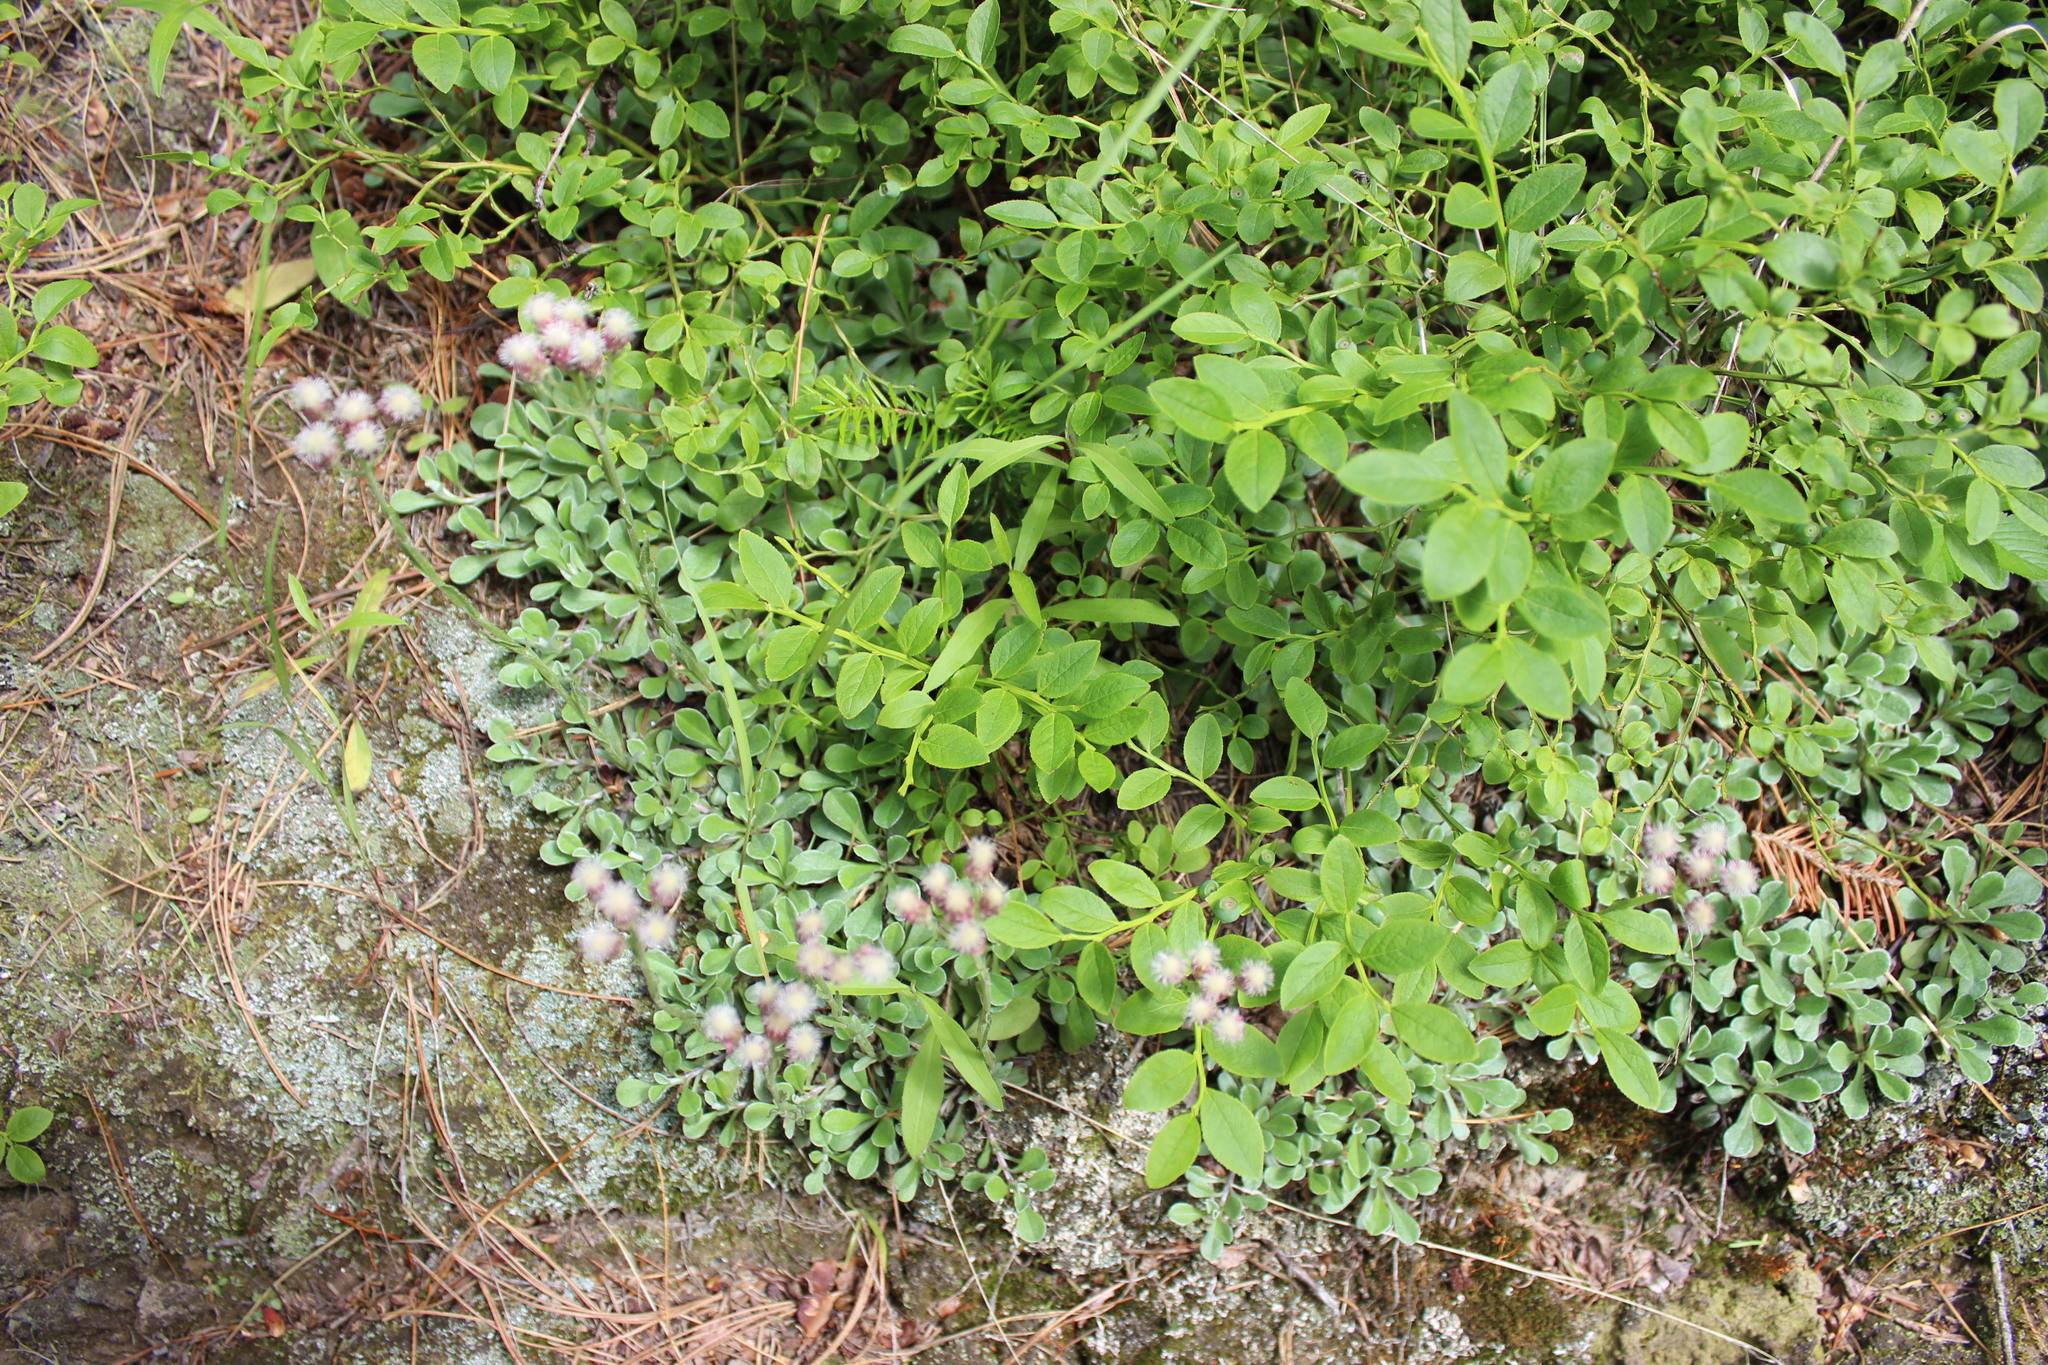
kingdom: Plantae
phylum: Tracheophyta
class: Magnoliopsida
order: Asterales
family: Asteraceae
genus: Antennaria
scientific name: Antennaria dioica
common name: Mountain everlasting
